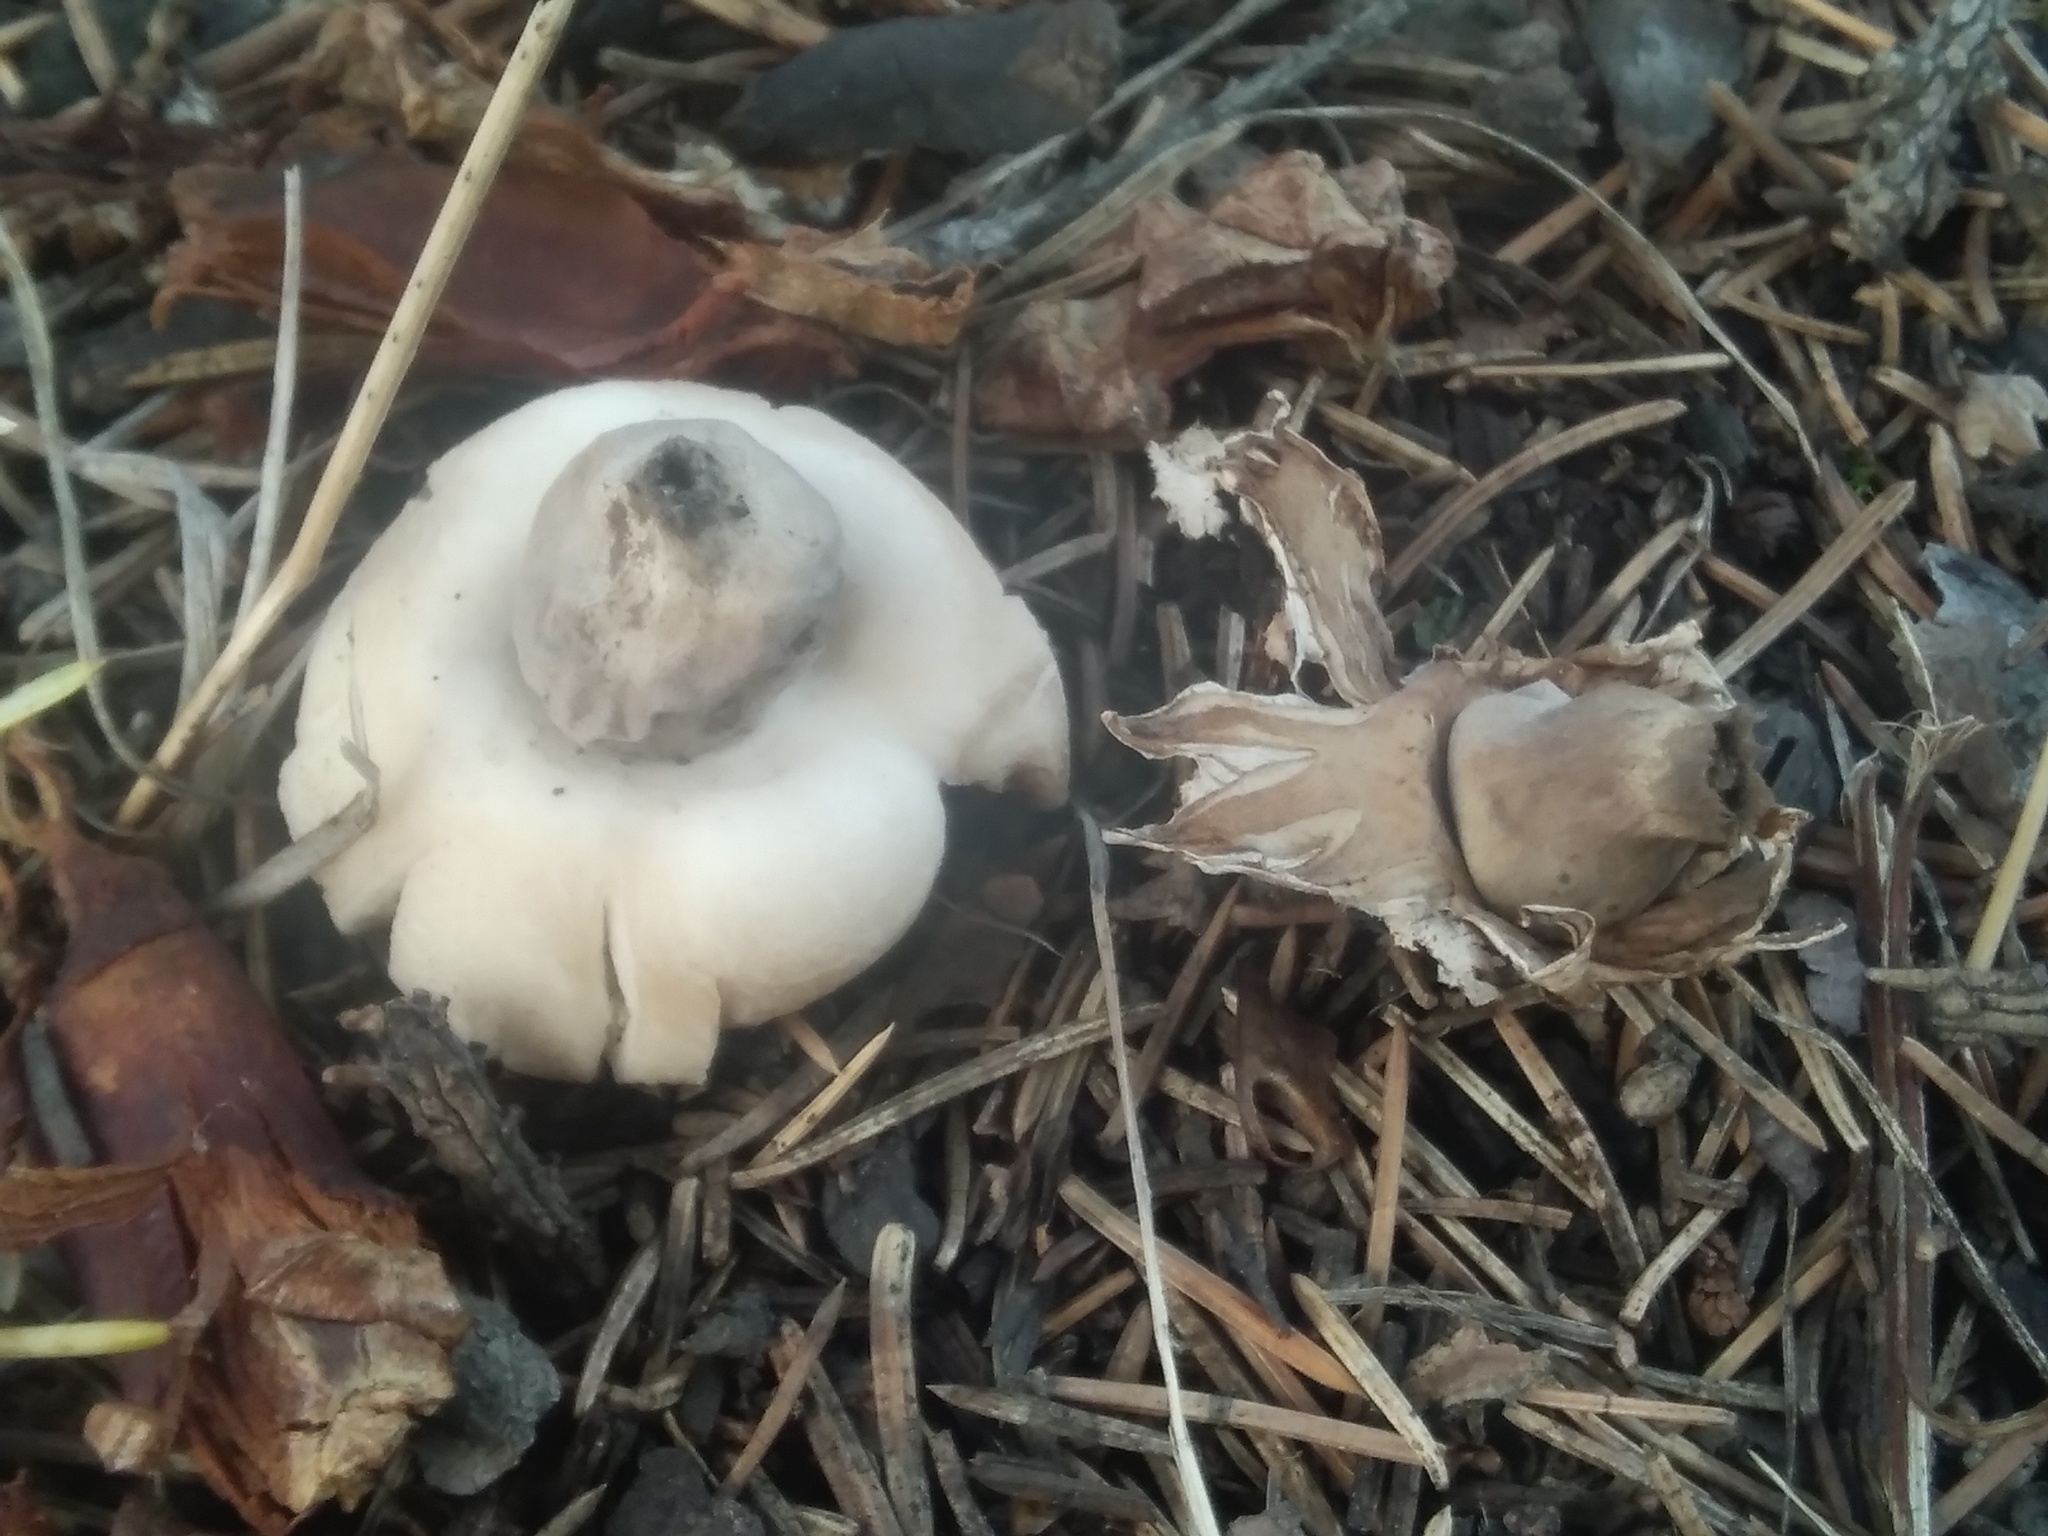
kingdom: Fungi
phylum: Basidiomycota
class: Agaricomycetes
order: Geastrales
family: Geastraceae
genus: Geastrum
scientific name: Geastrum fimbriatum
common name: Sessile earthstar
